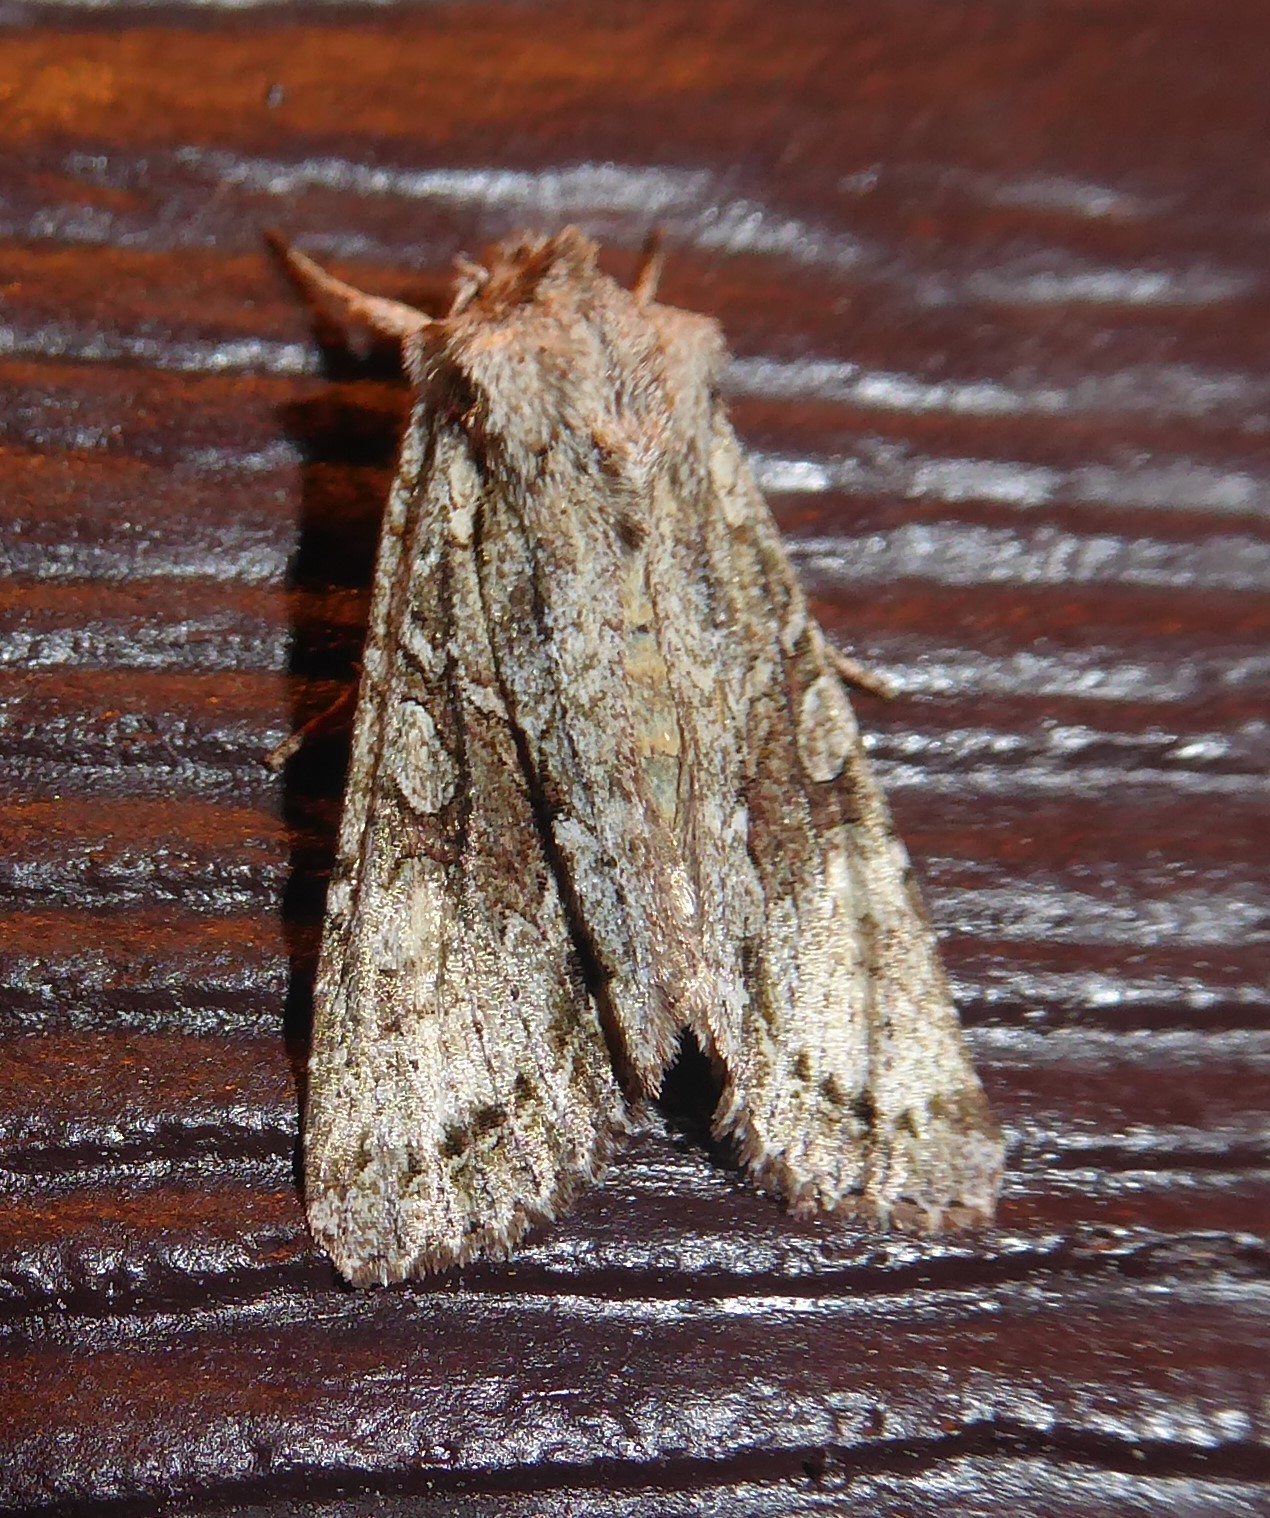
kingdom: Animalia
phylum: Arthropoda
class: Insecta
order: Lepidoptera
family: Noctuidae
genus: Ichneutica
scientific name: Ichneutica mutans
